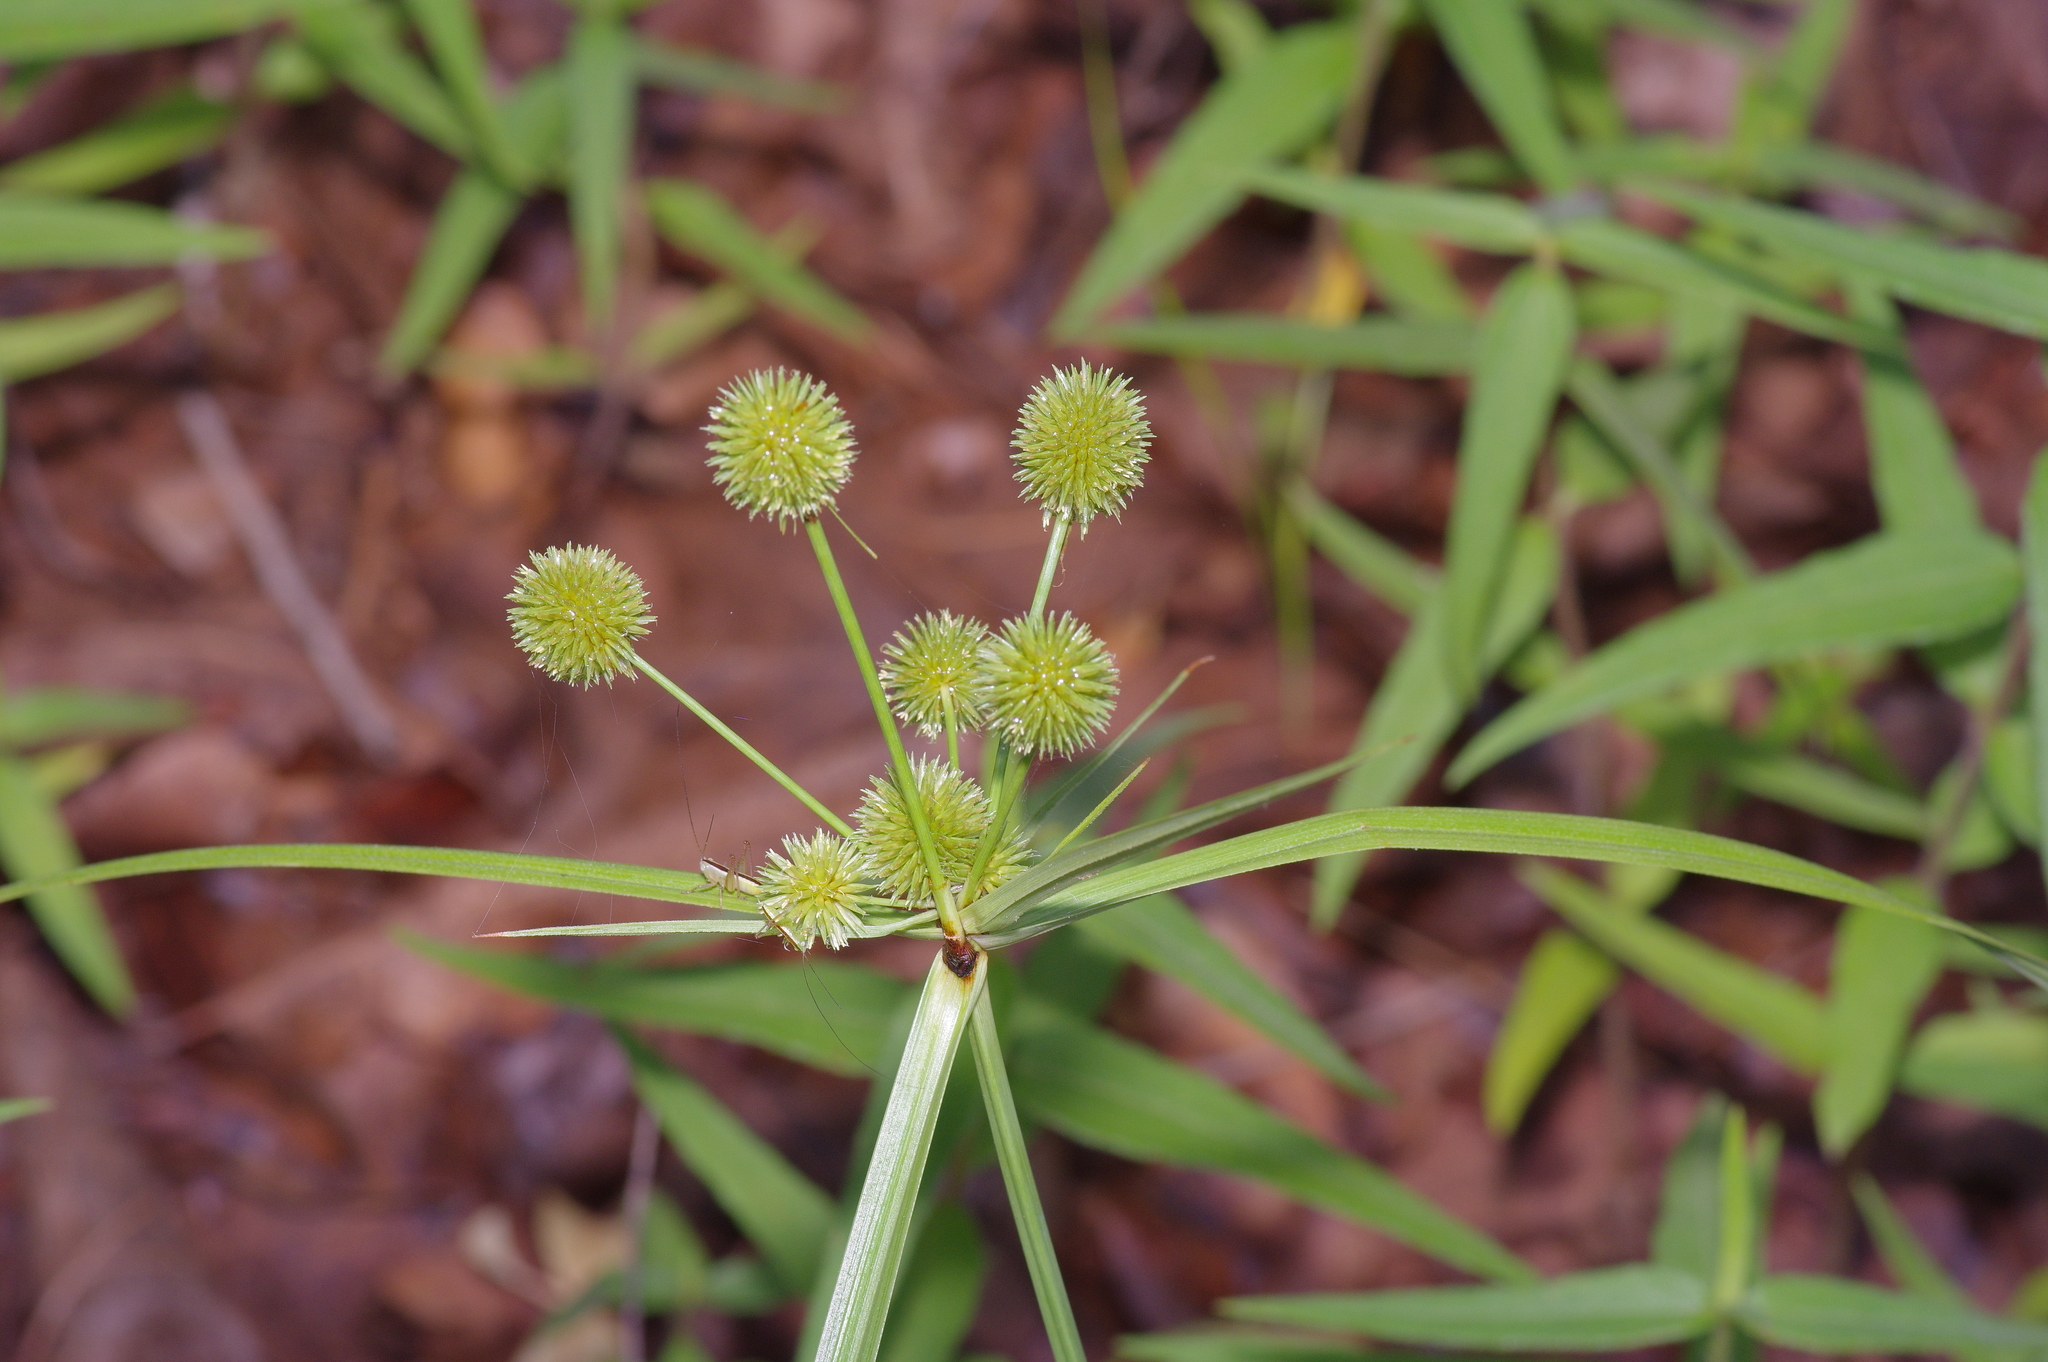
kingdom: Plantae
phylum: Tracheophyta
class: Liliopsida
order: Poales
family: Cyperaceae
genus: Cyperus
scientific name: Cyperus echinatus
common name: Teasel sedge
